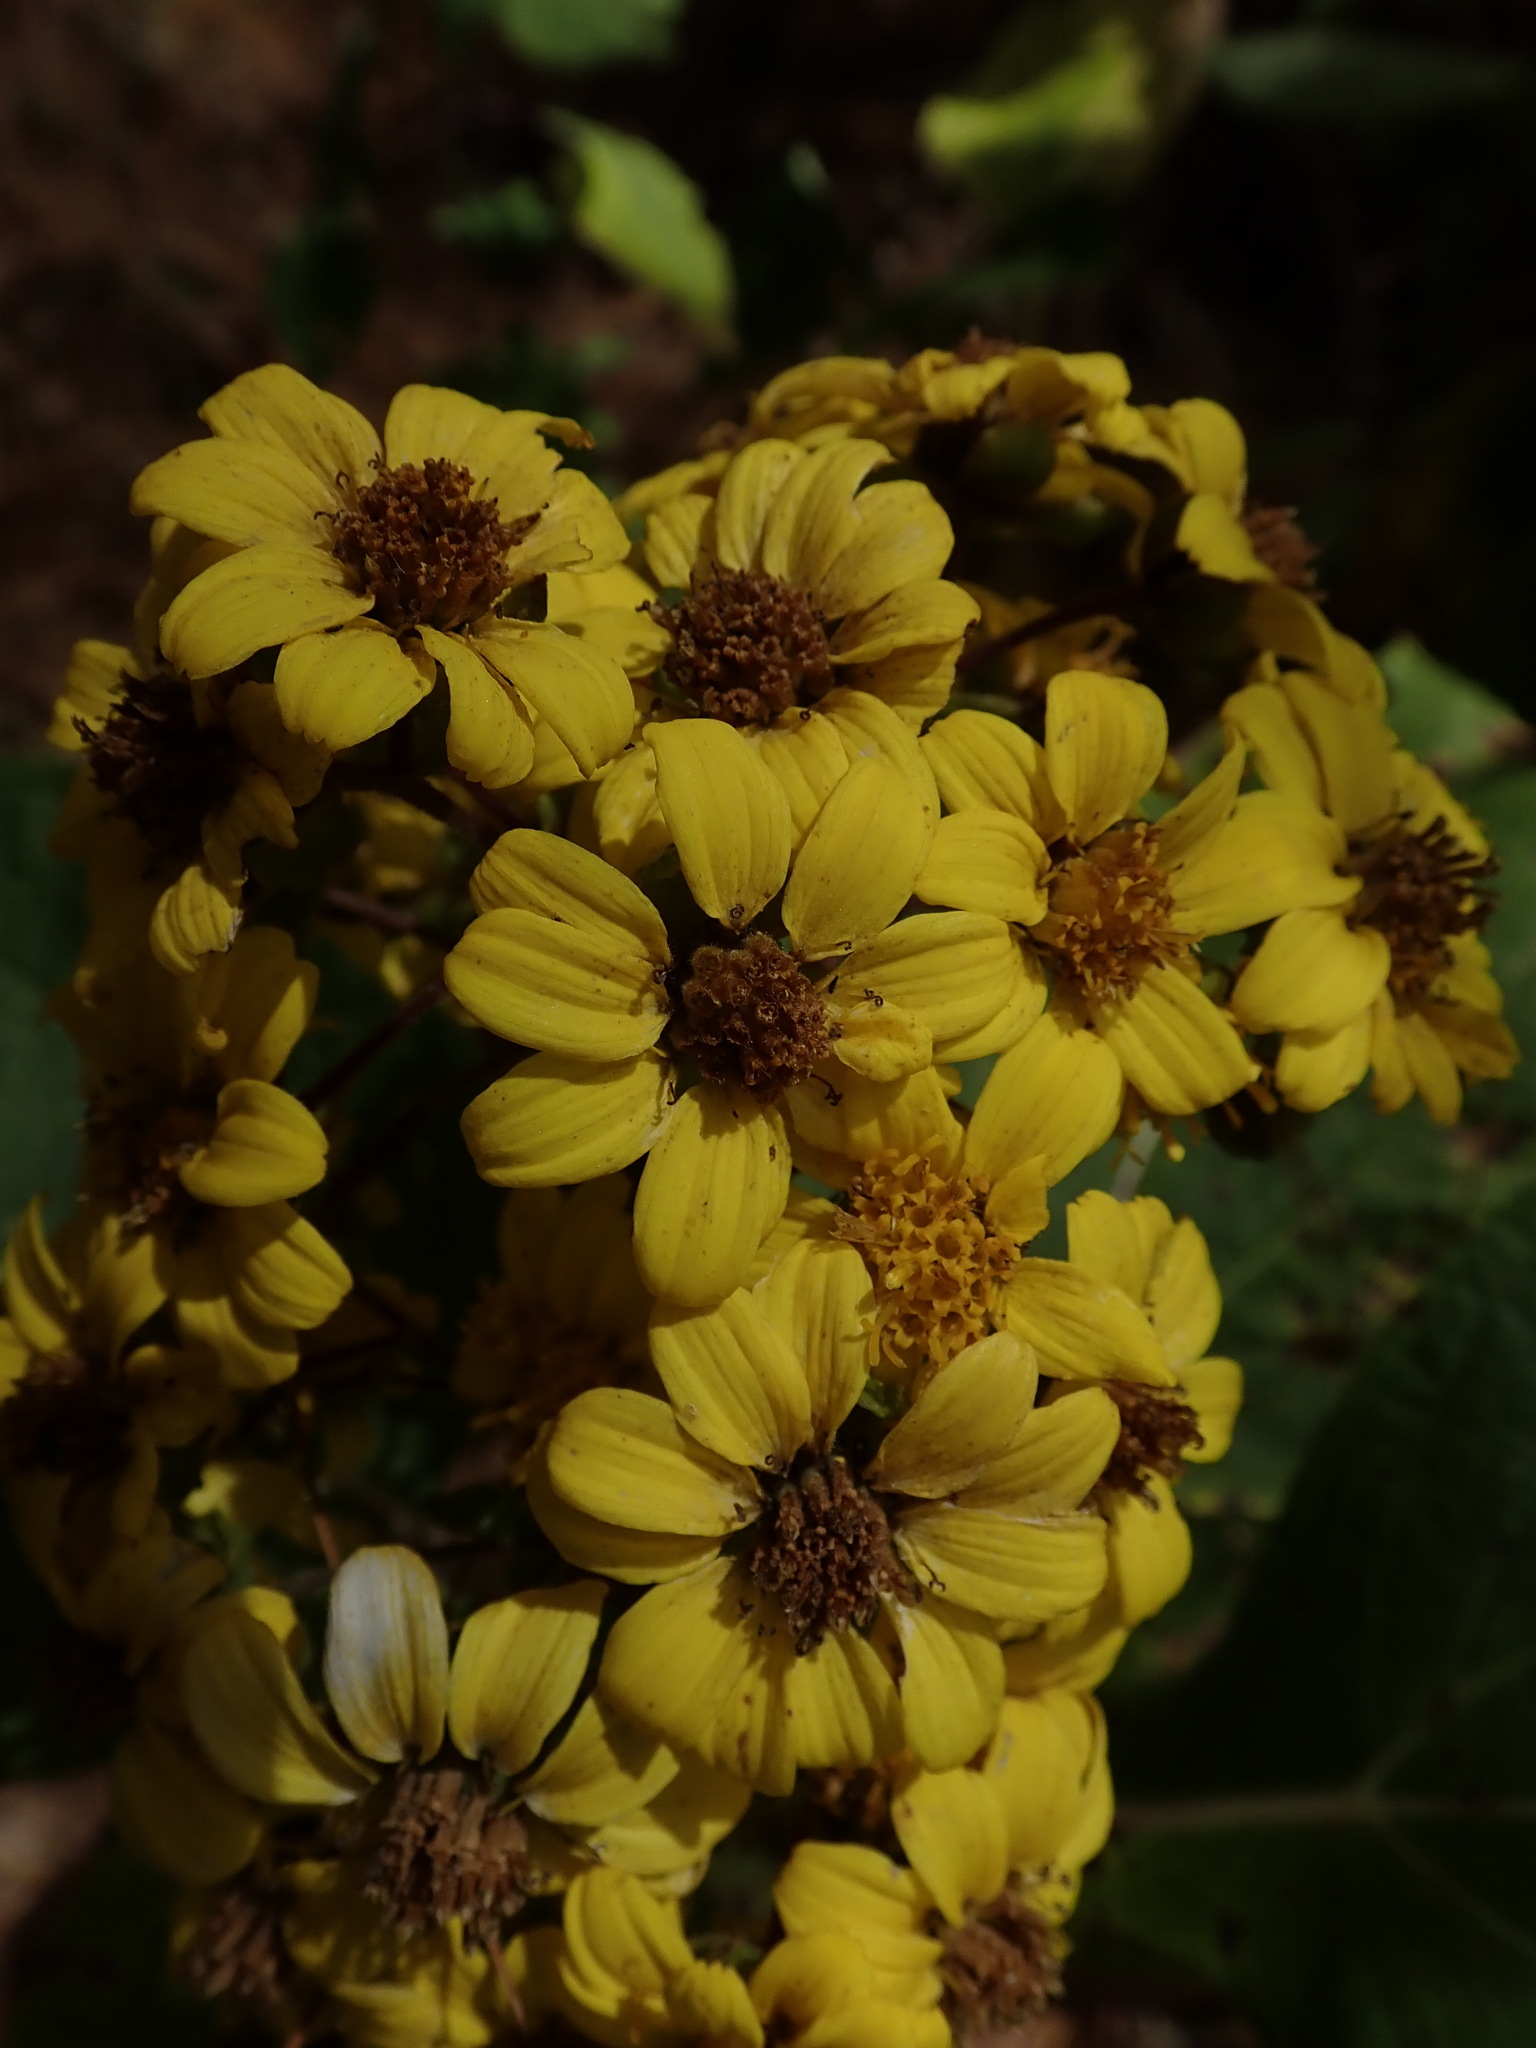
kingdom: Plantae
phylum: Tracheophyta
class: Magnoliopsida
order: Asterales
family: Asteraceae
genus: Rumfordia
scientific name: Rumfordia floribunda
